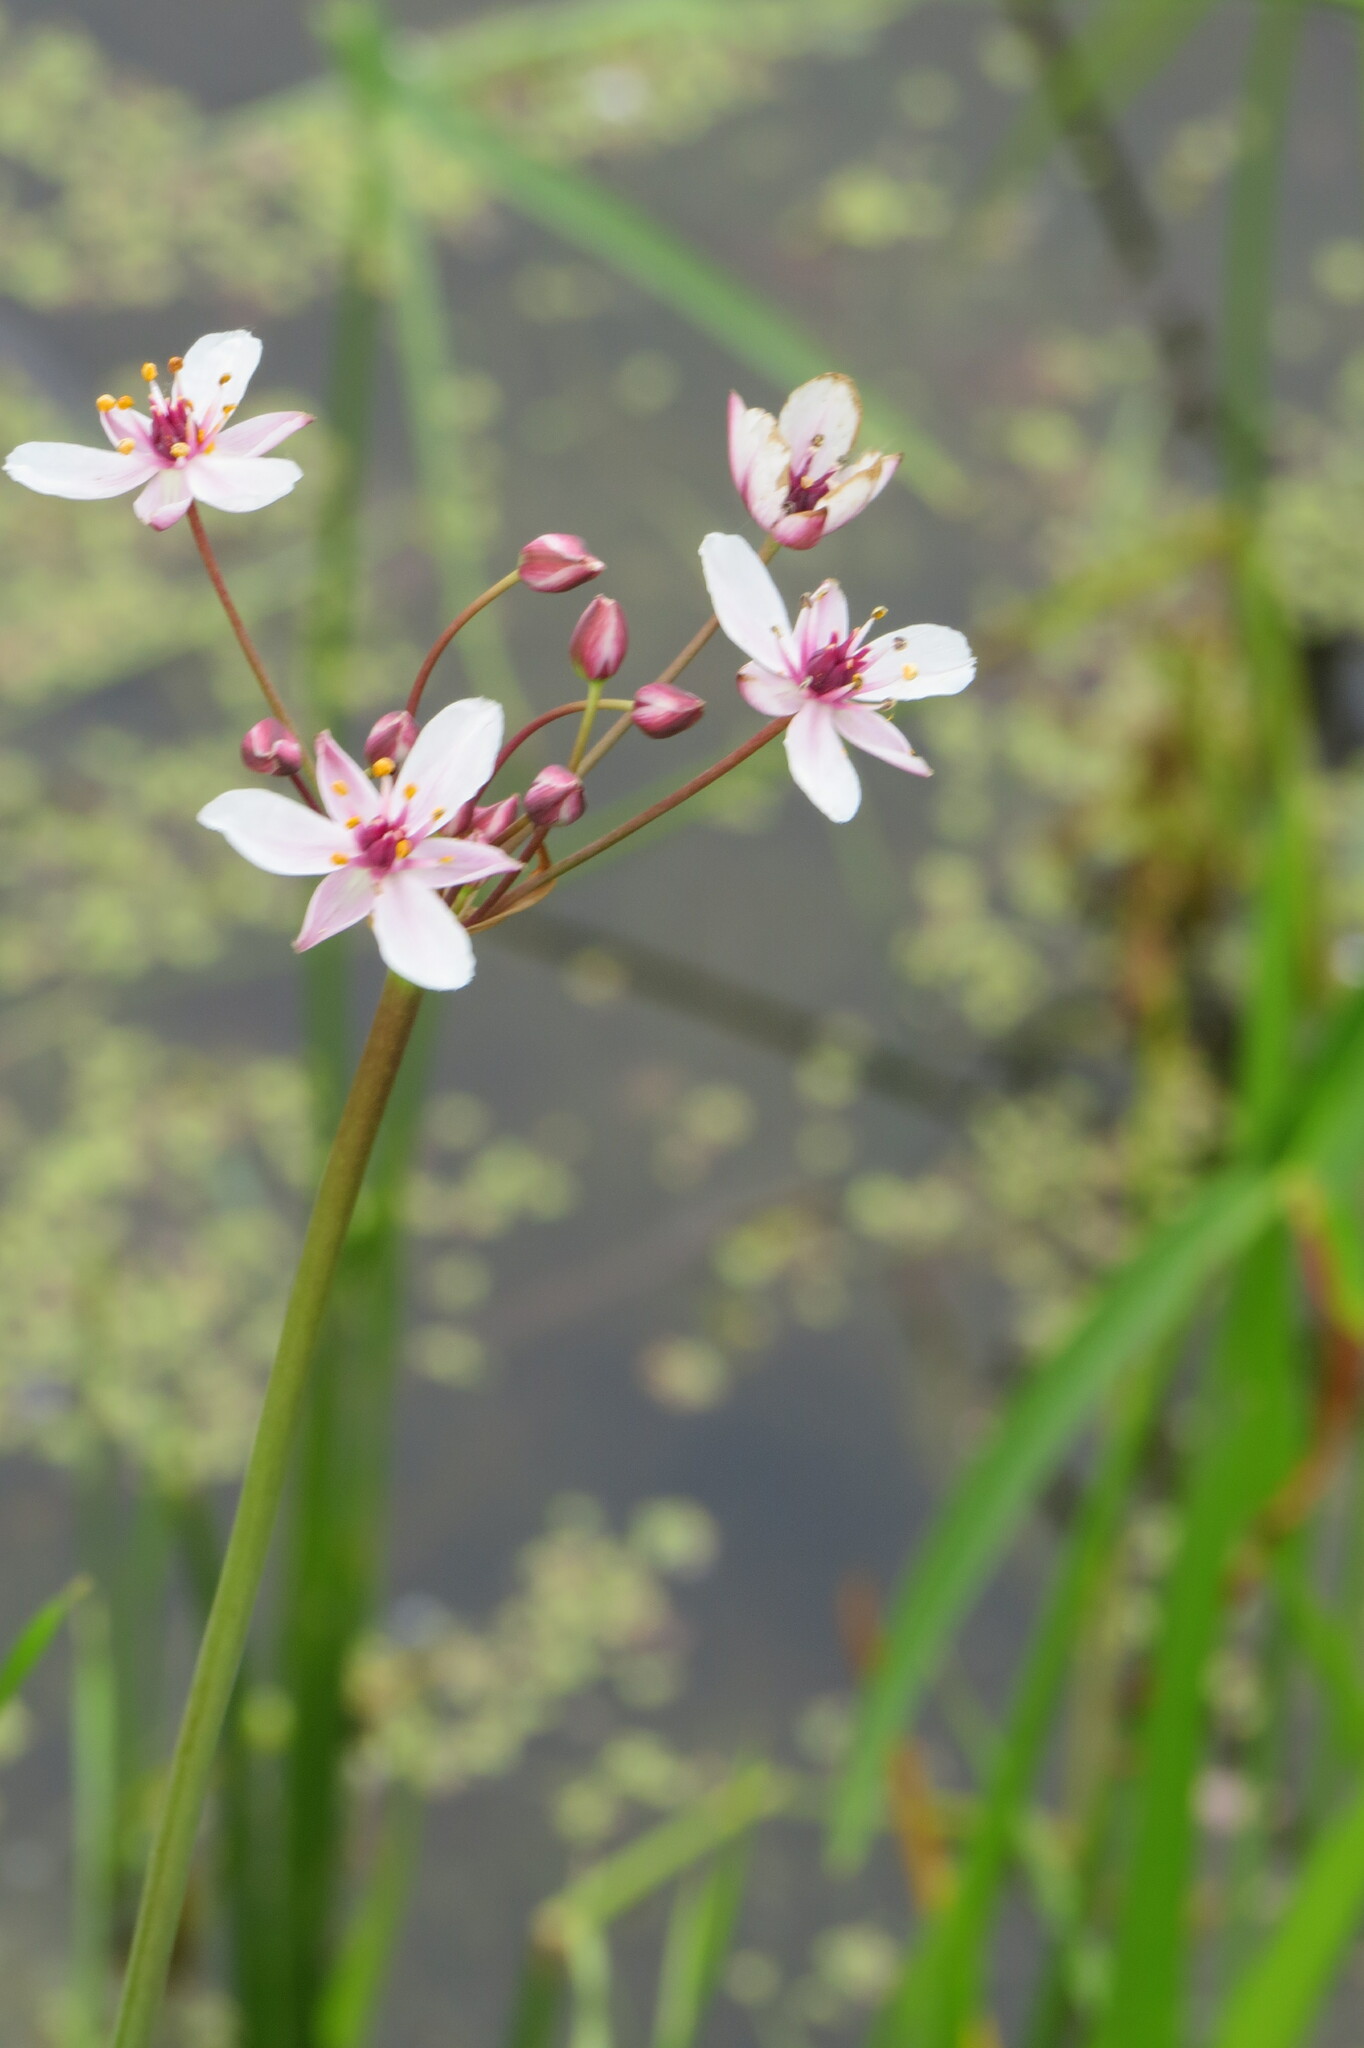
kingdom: Plantae
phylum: Tracheophyta
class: Liliopsida
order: Alismatales
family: Butomaceae
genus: Butomus
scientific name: Butomus umbellatus
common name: Flowering-rush
